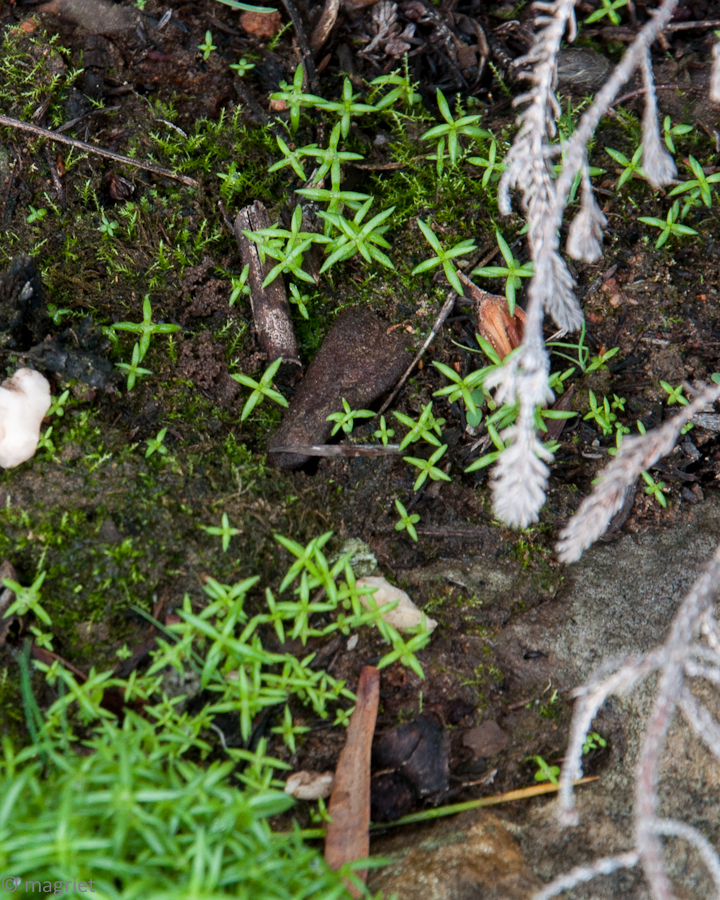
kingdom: Plantae
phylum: Tracheophyta
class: Magnoliopsida
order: Saxifragales
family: Crassulaceae
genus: Crassula
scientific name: Crassula thunbergiana
